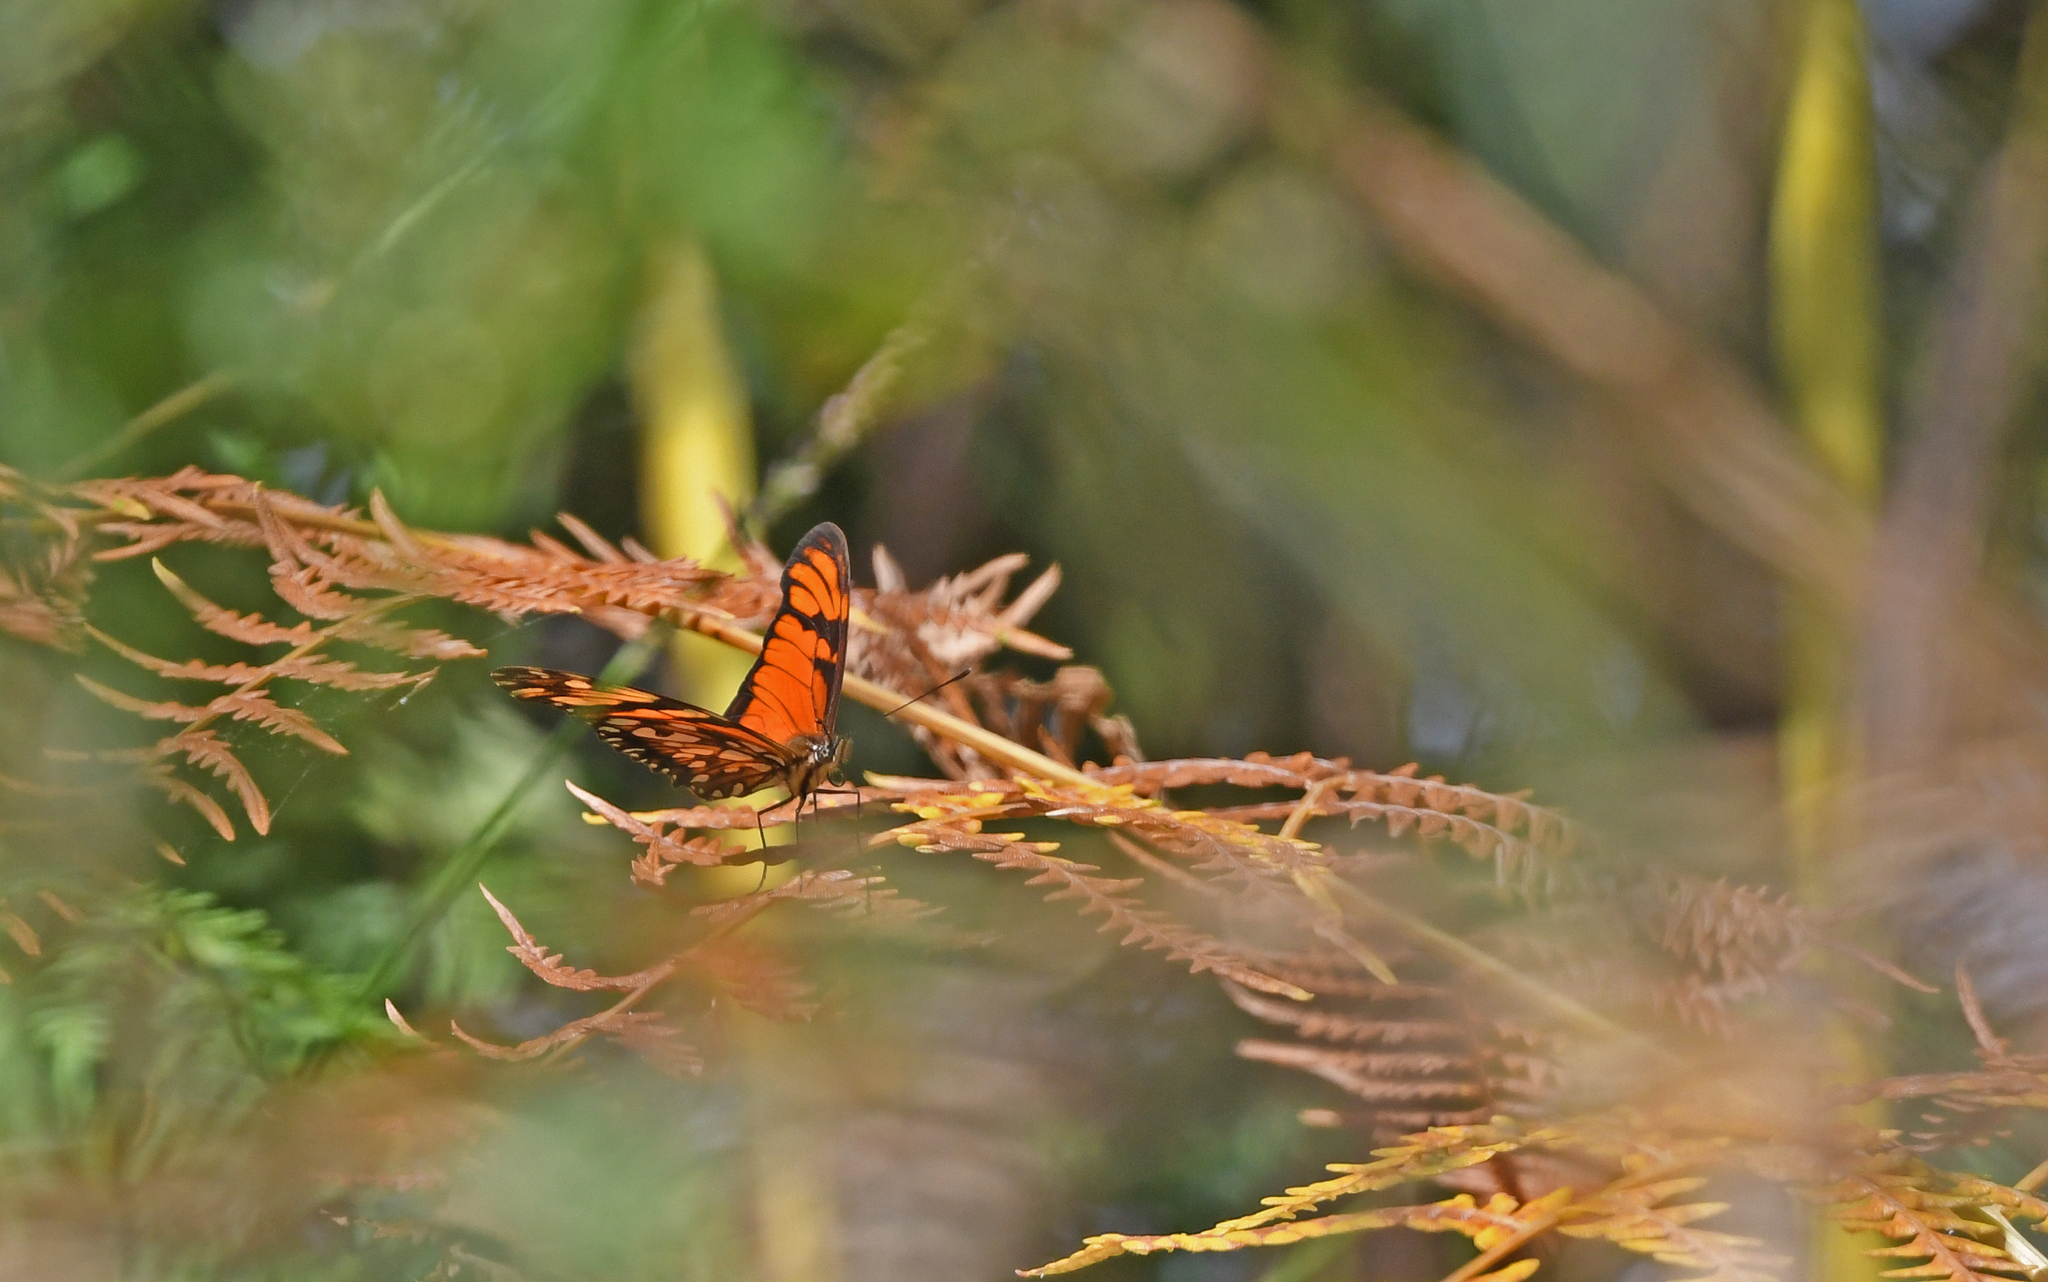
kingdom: Animalia
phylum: Arthropoda
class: Insecta
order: Lepidoptera
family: Nymphalidae
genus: Dione
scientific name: Dione juno
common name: Juno silverspot
